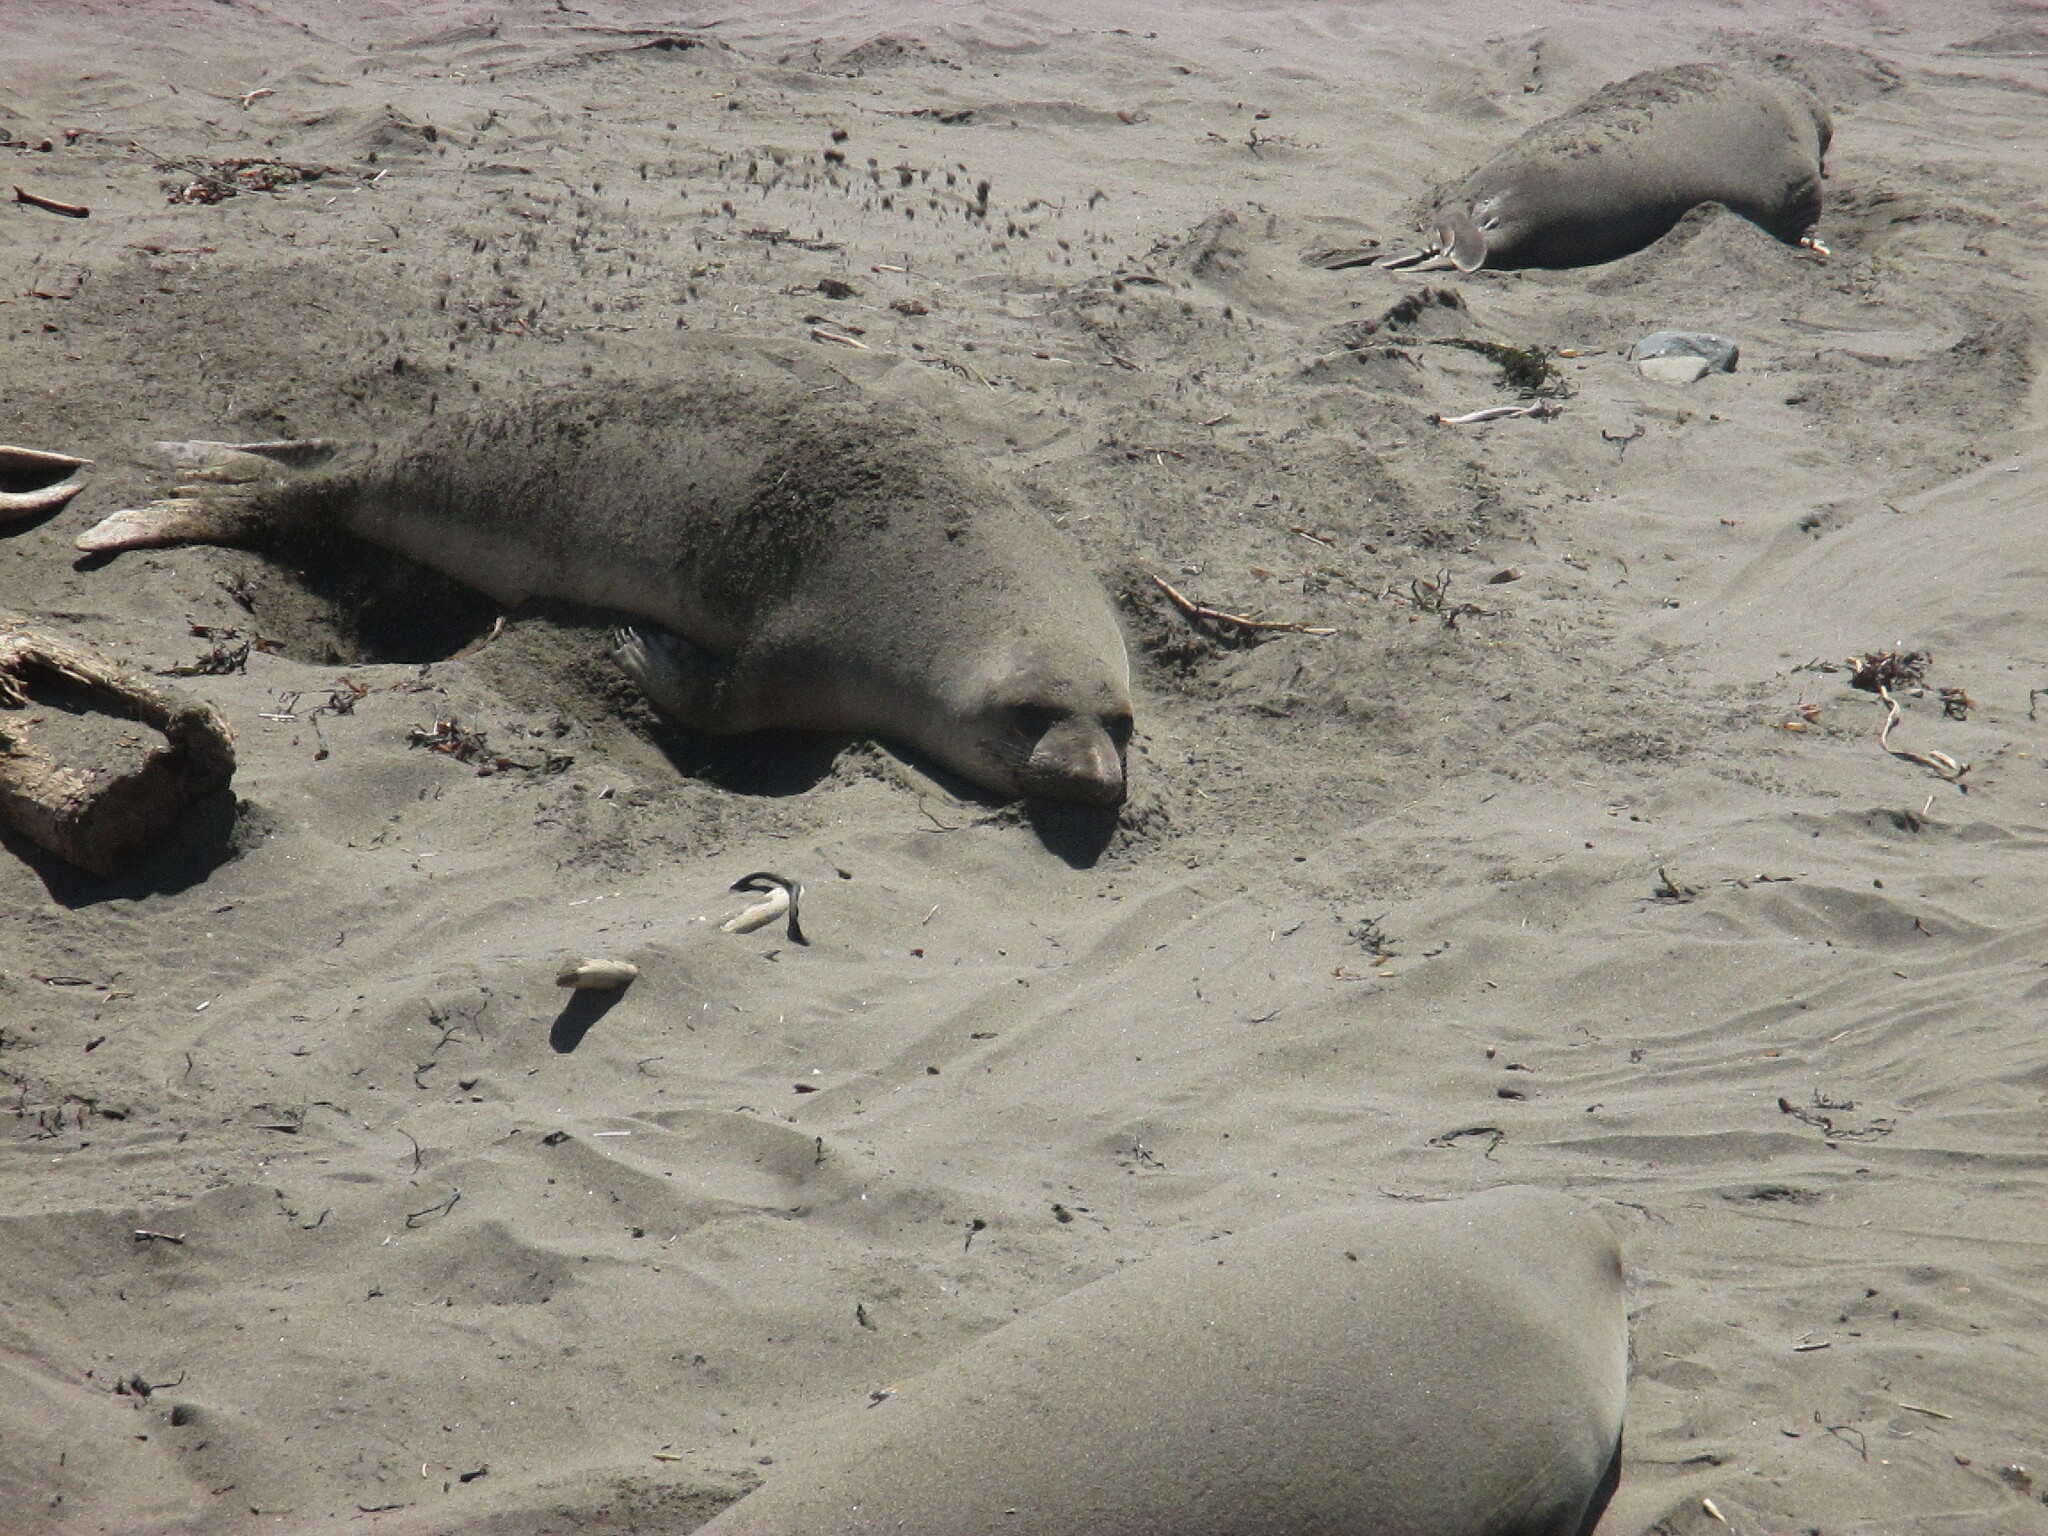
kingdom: Animalia
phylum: Chordata
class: Mammalia
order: Carnivora
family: Phocidae
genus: Mirounga
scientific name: Mirounga angustirostris
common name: Northern elephant seal
